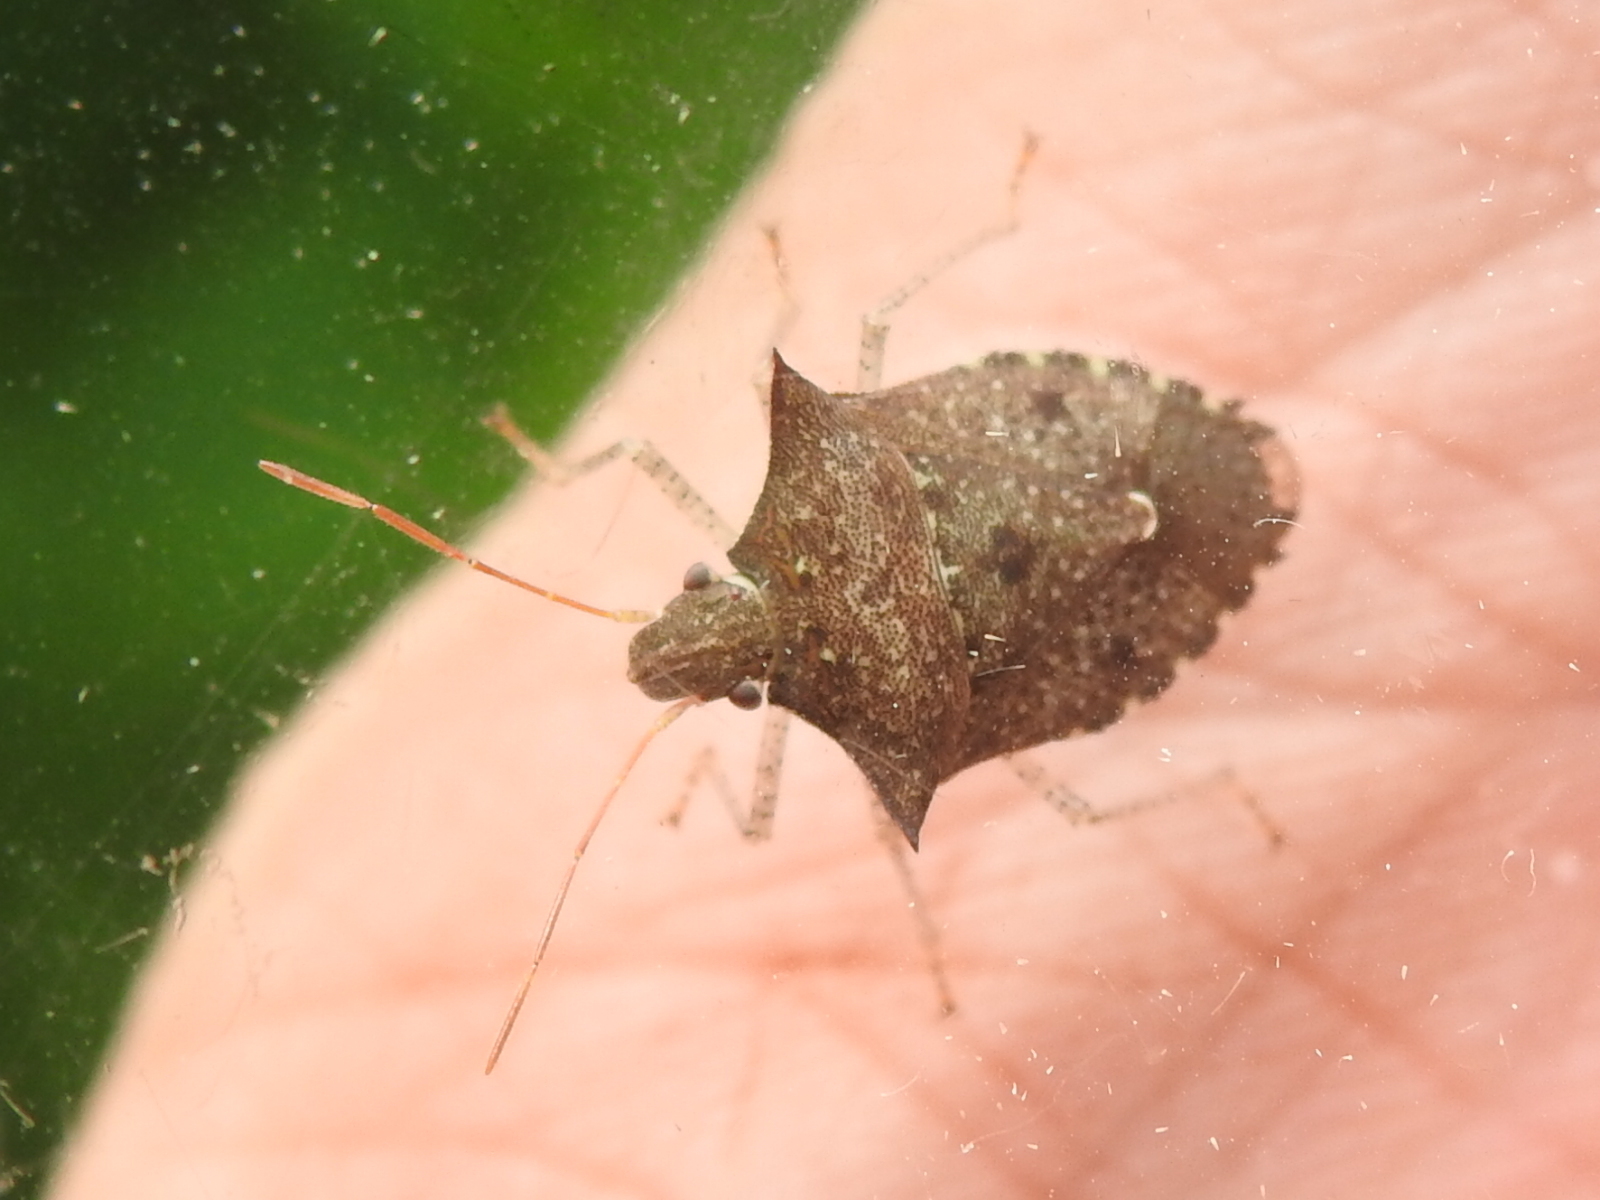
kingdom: Animalia
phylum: Arthropoda
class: Insecta
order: Hemiptera
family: Pentatomidae
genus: Euschistus
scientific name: Euschistus tristigmus
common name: Dusky stink bug
